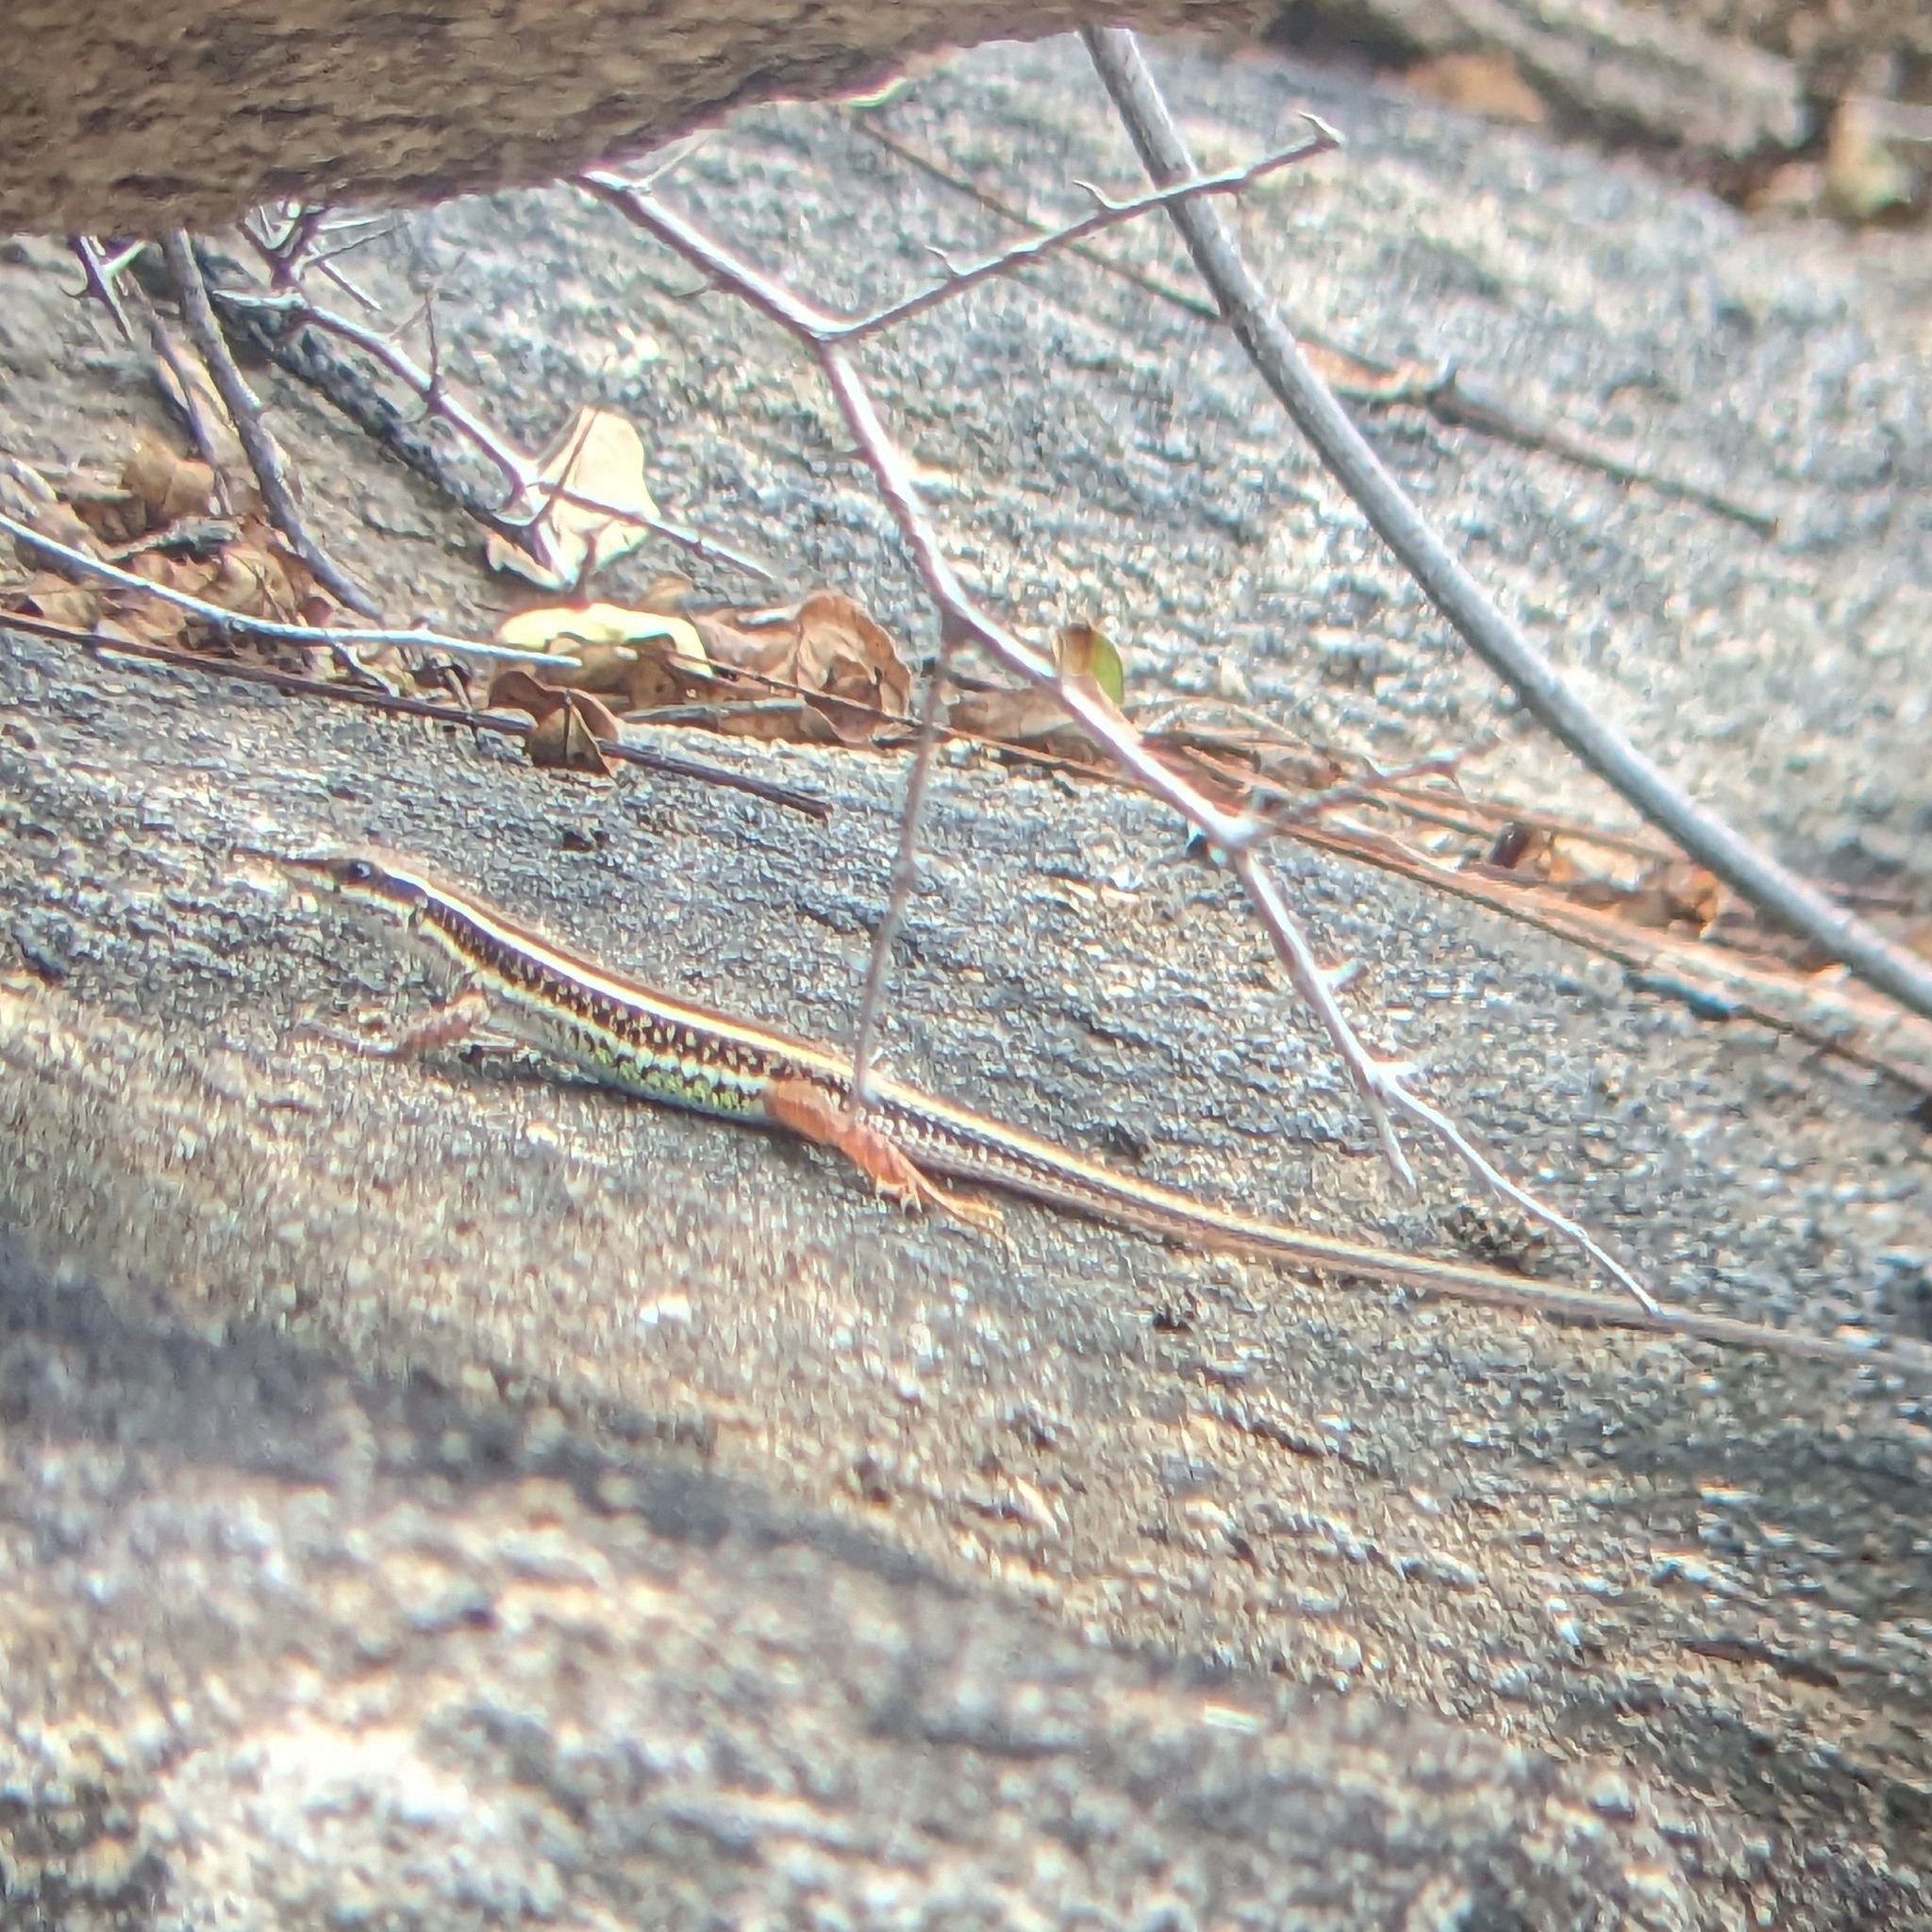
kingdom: Animalia
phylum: Chordata
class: Squamata
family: Lacertidae
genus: Ophisops
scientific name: Ophisops leschenaultii
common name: Leschenault's cabrita
